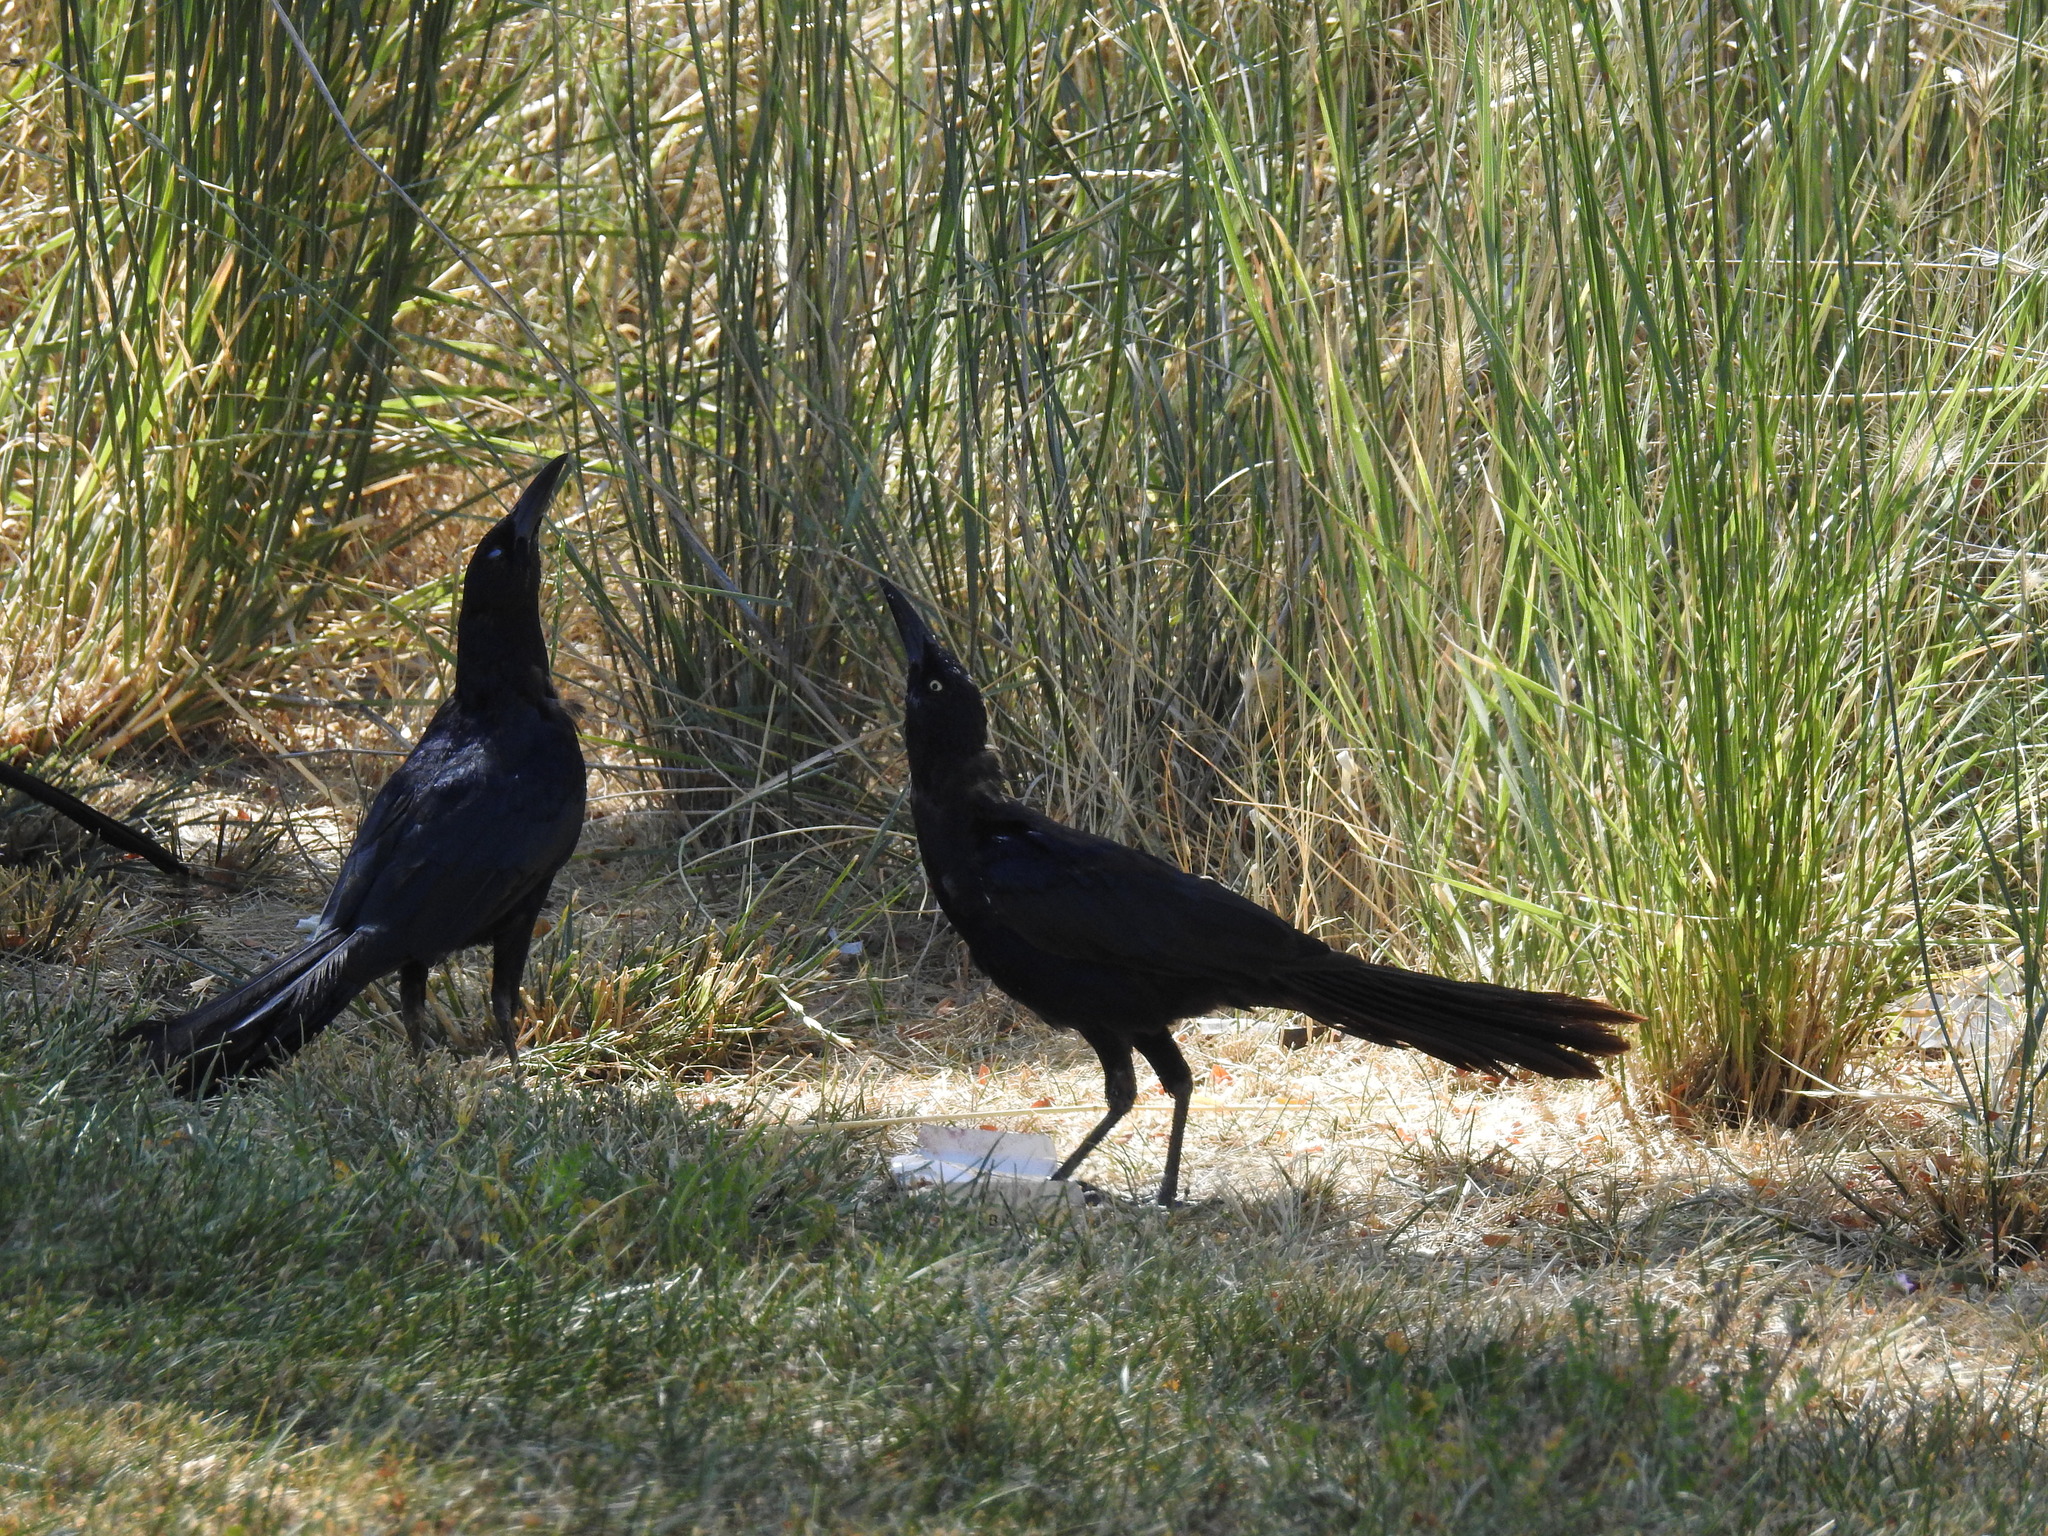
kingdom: Animalia
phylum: Chordata
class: Aves
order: Passeriformes
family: Icteridae
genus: Quiscalus
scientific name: Quiscalus mexicanus
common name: Great-tailed grackle
